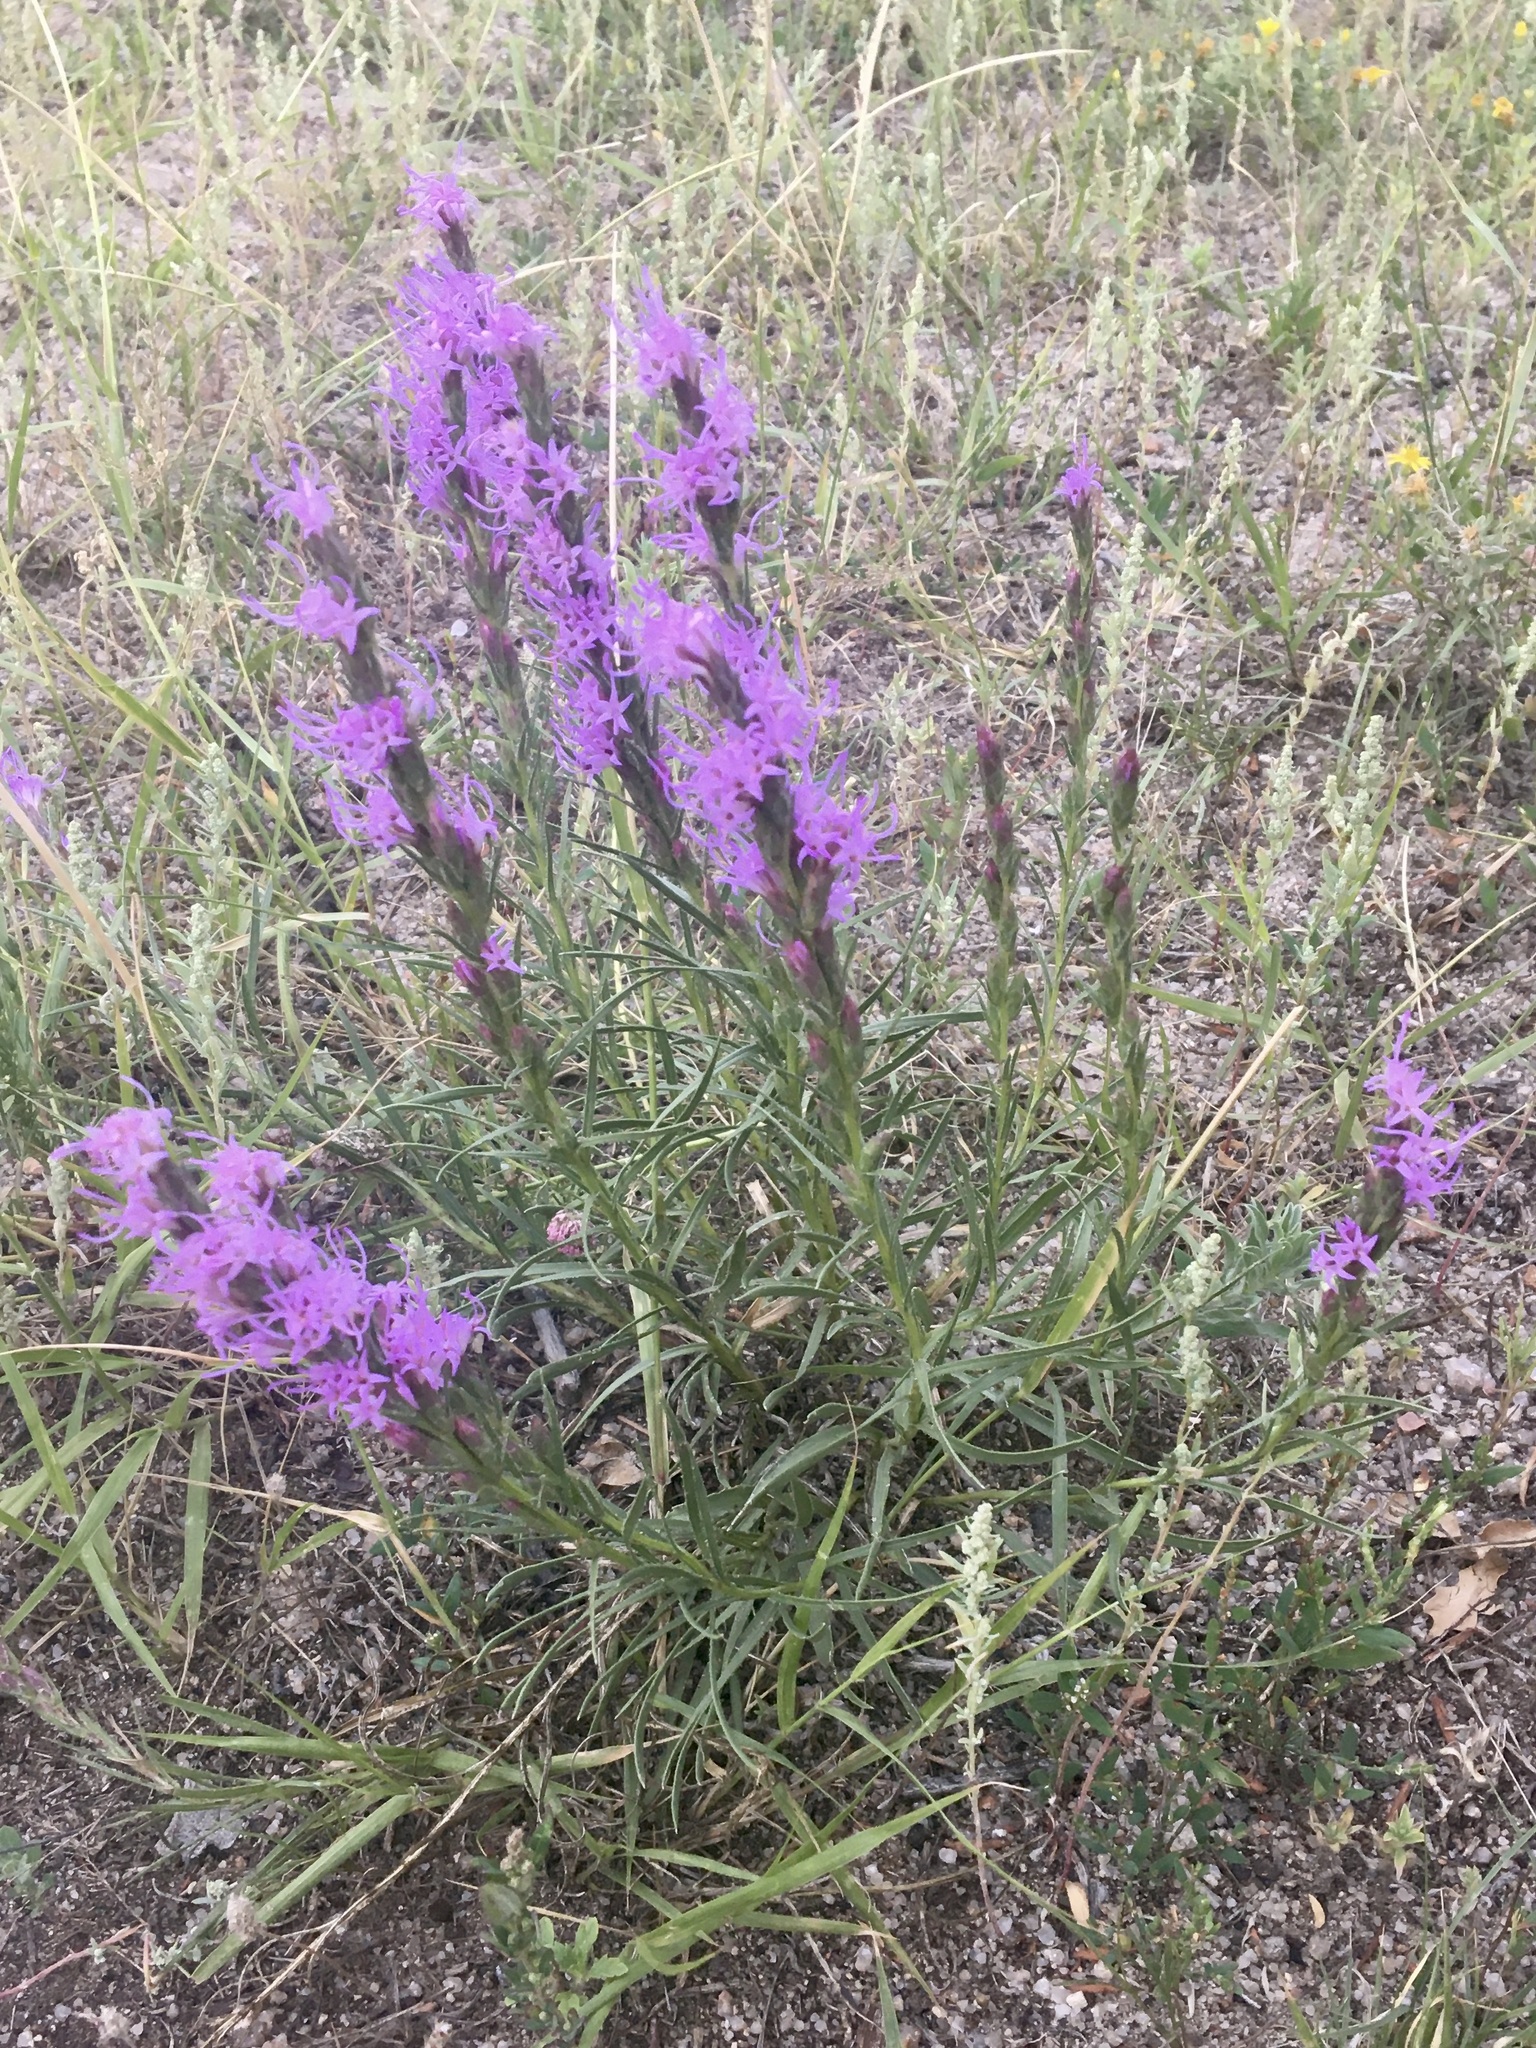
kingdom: Plantae
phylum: Tracheophyta
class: Magnoliopsida
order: Asterales
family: Asteraceae
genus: Liatris
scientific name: Liatris punctata
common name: Dotted gayfeather
